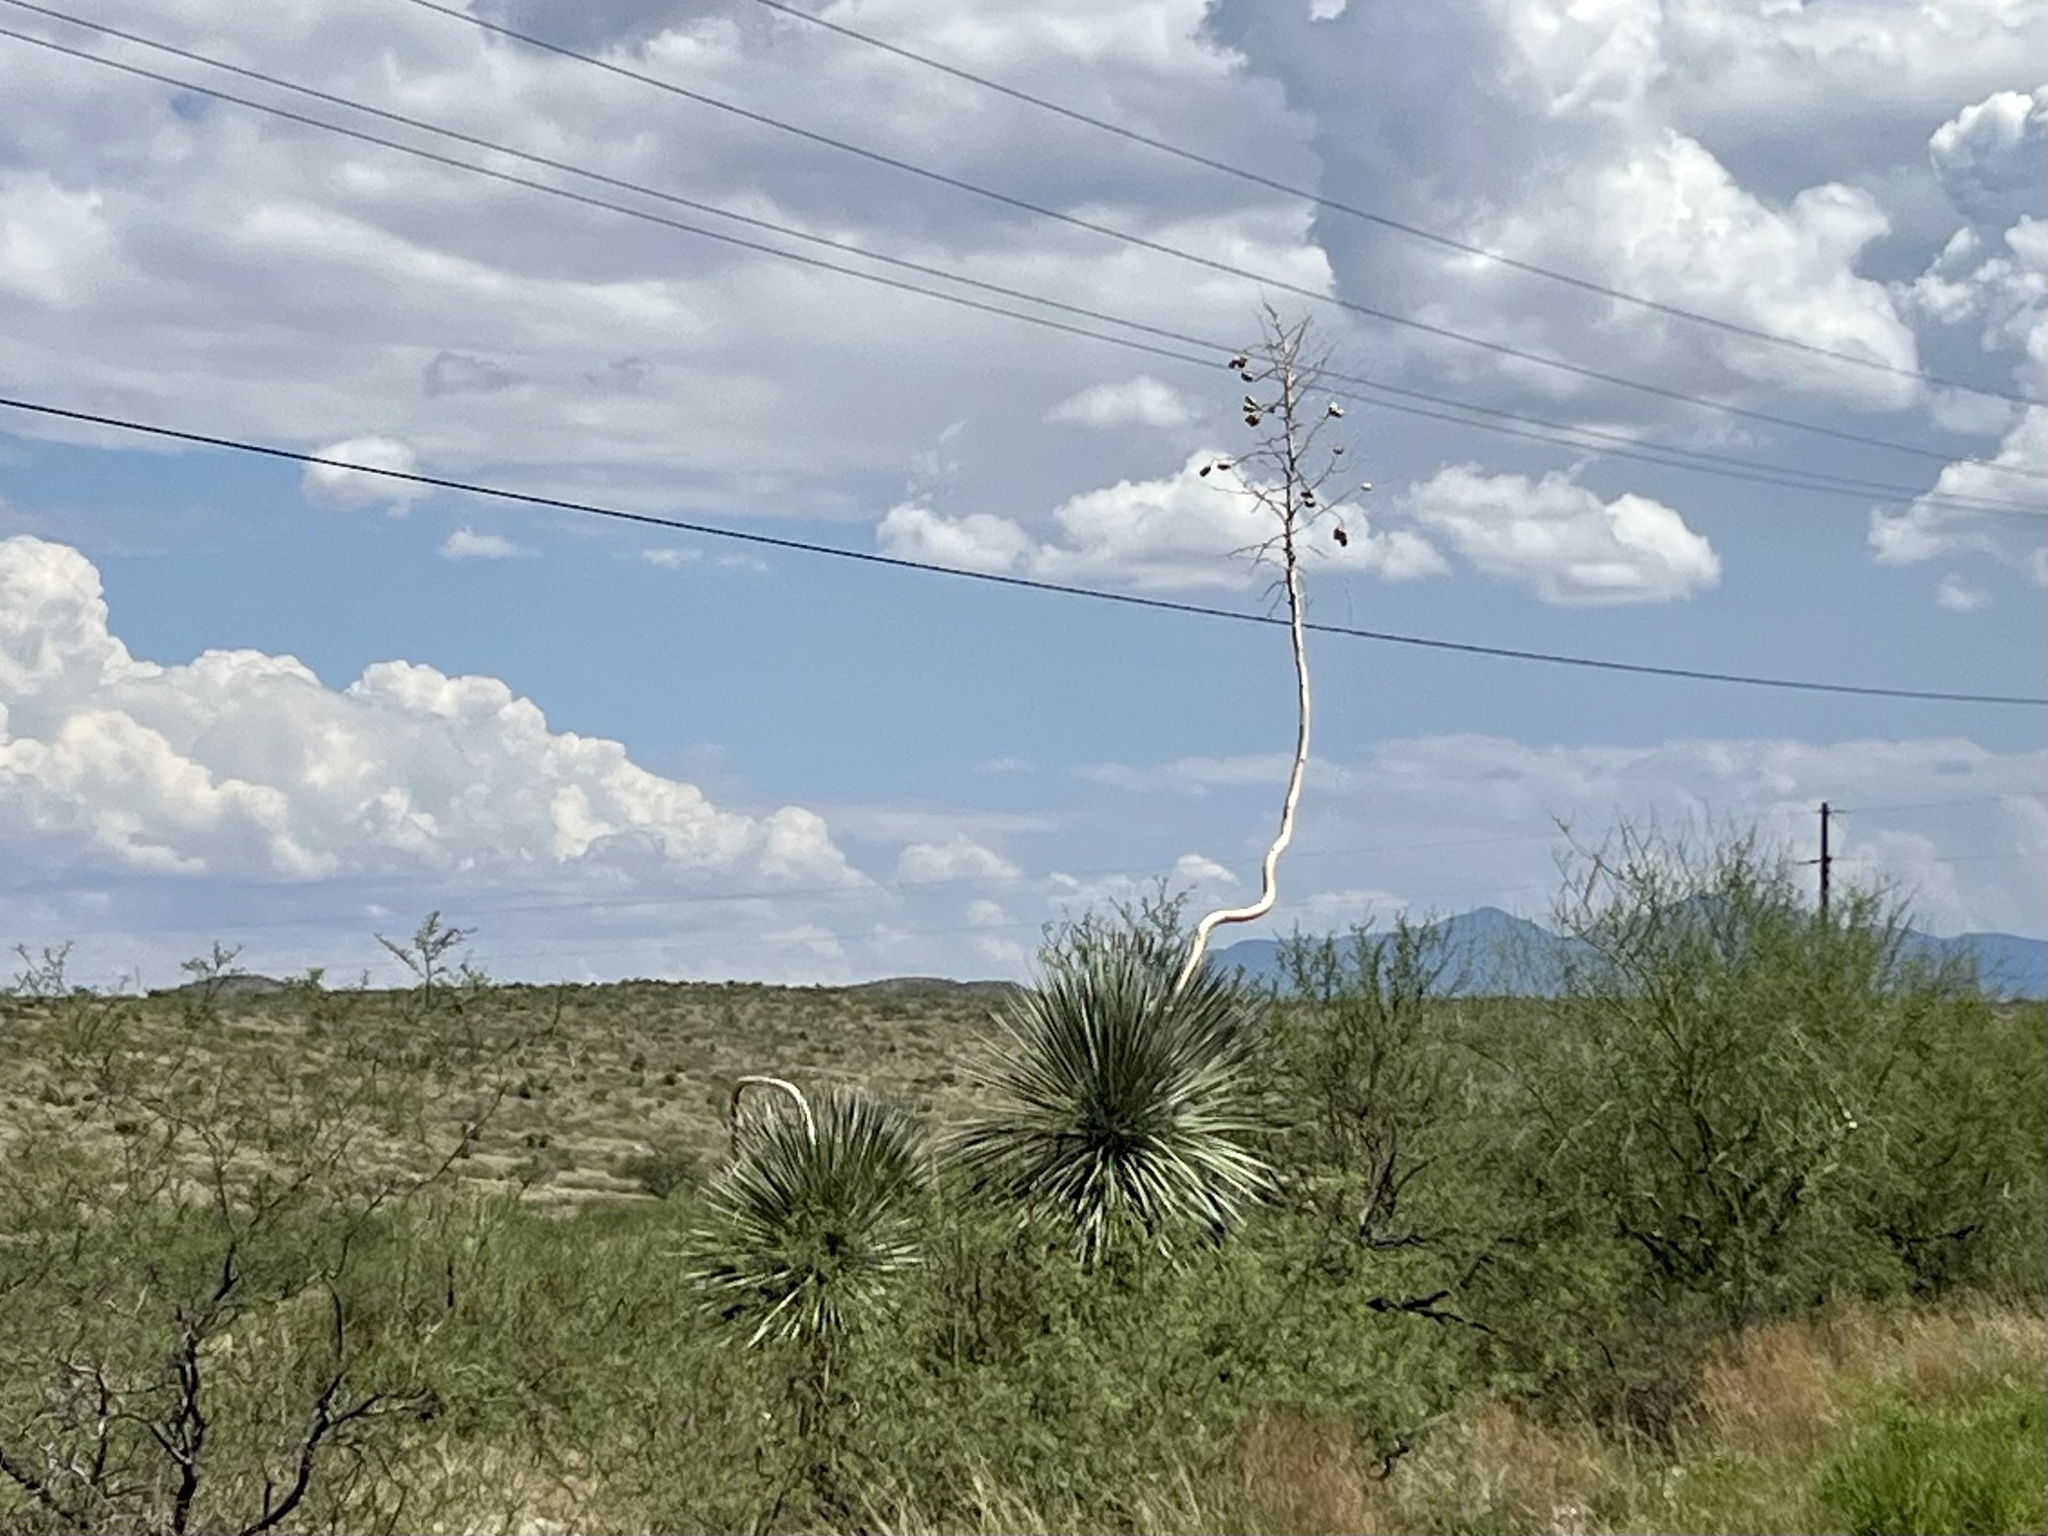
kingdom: Plantae
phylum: Tracheophyta
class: Liliopsida
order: Asparagales
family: Asparagaceae
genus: Yucca
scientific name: Yucca elata
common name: Palmella
